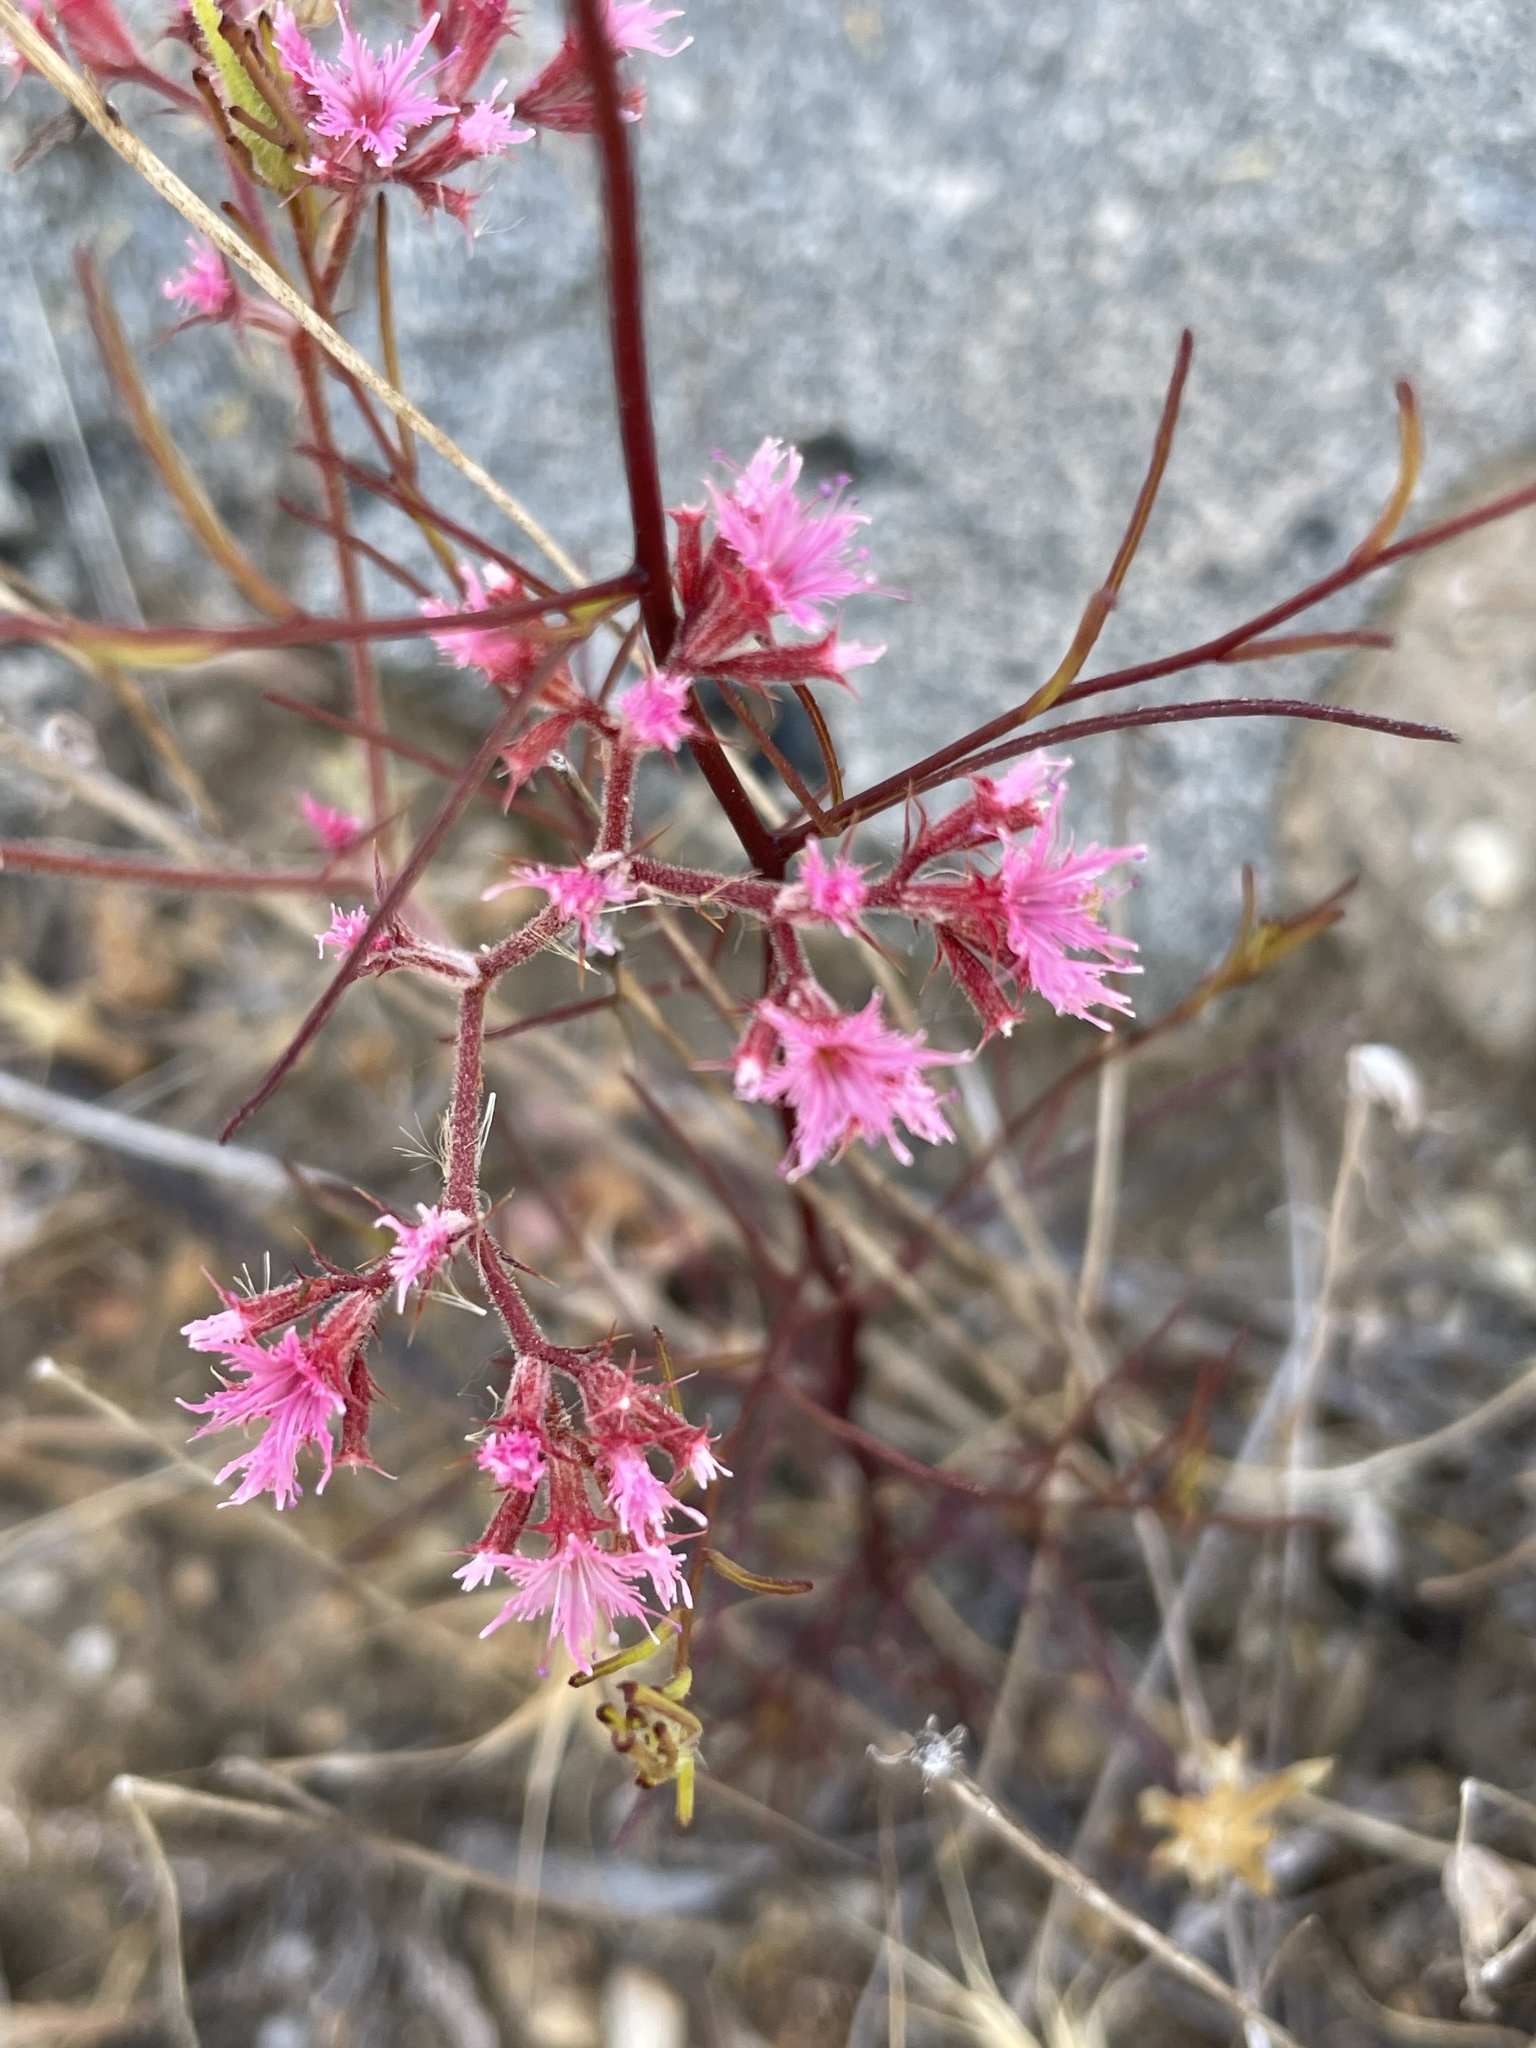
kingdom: Plantae
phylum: Tracheophyta
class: Magnoliopsida
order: Caryophyllales
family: Polygonaceae
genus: Chorizanthe
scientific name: Chorizanthe fimbriata
